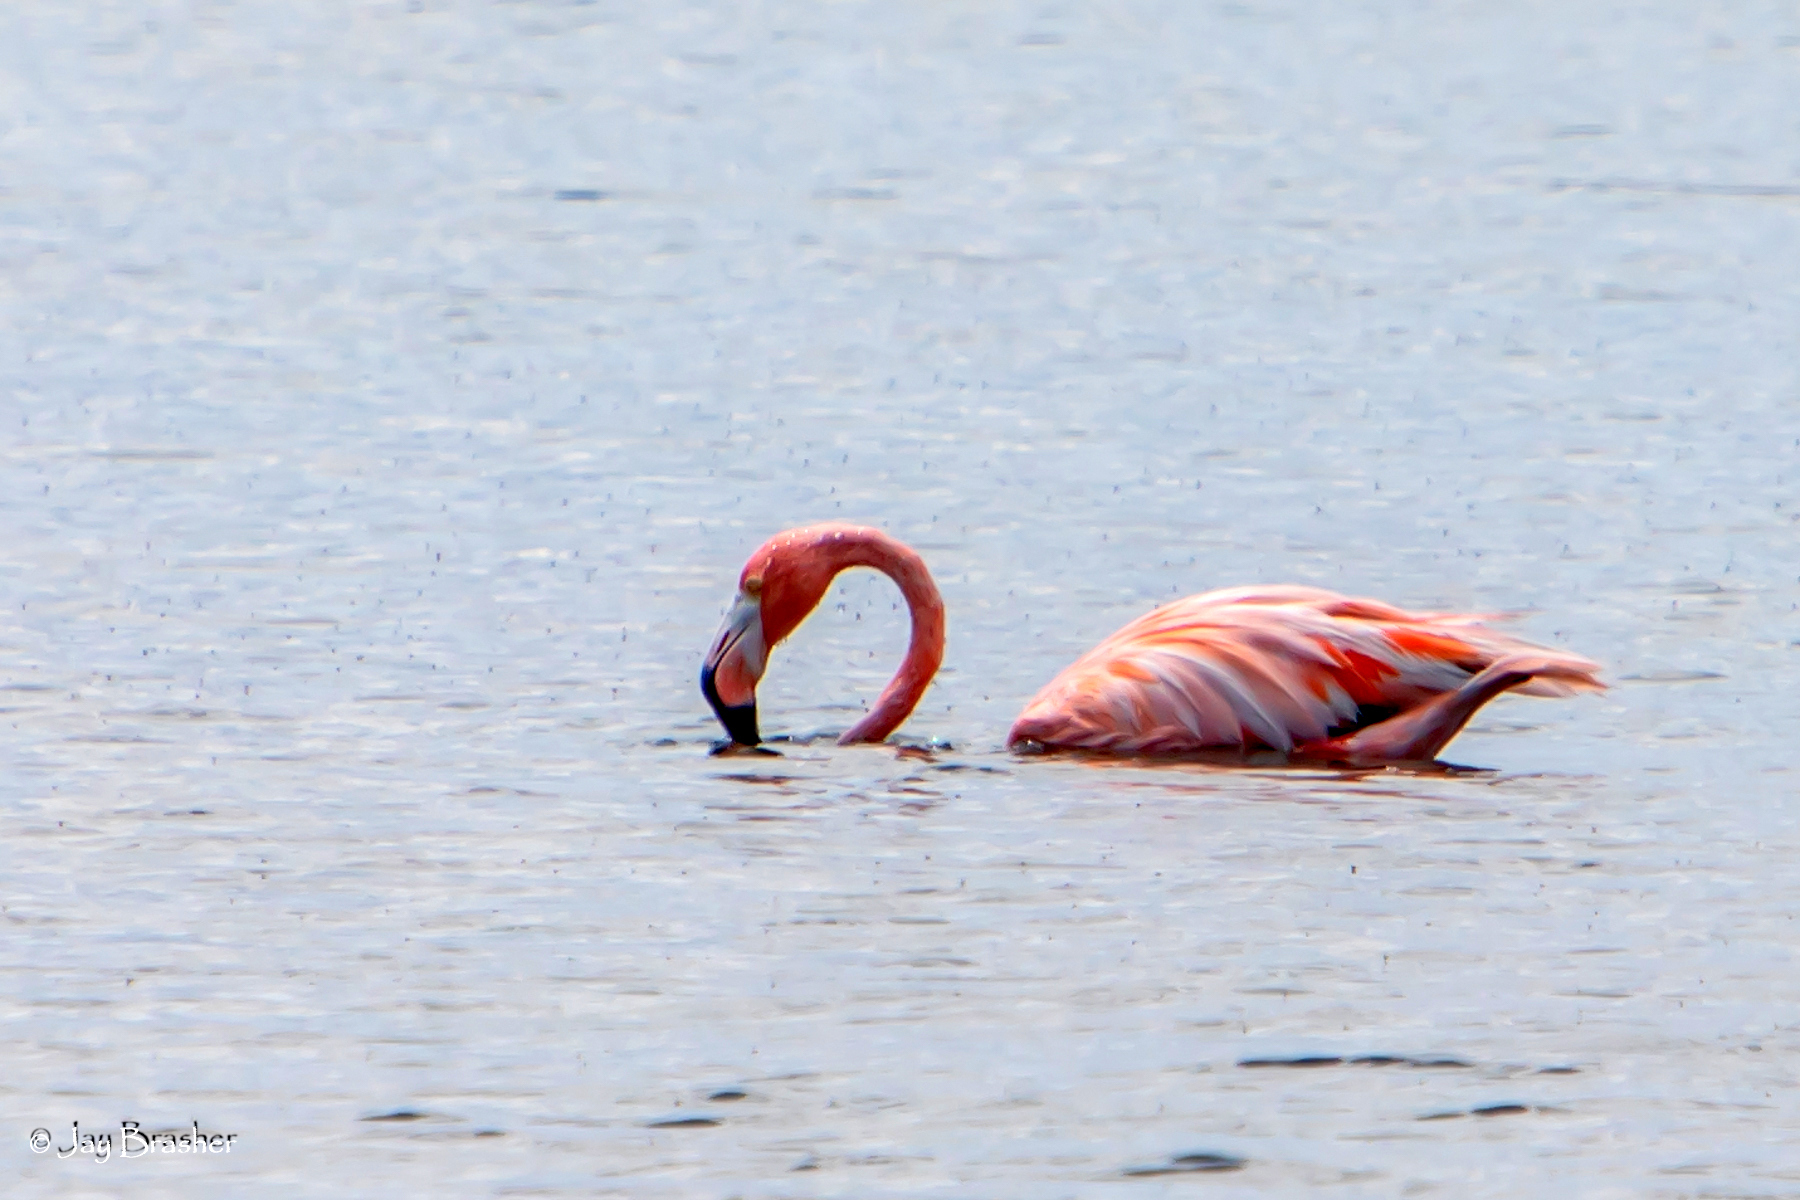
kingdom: Animalia
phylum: Chordata
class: Aves
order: Phoenicopteriformes
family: Phoenicopteridae
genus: Phoenicopterus
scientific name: Phoenicopterus ruber
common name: American flamingo
